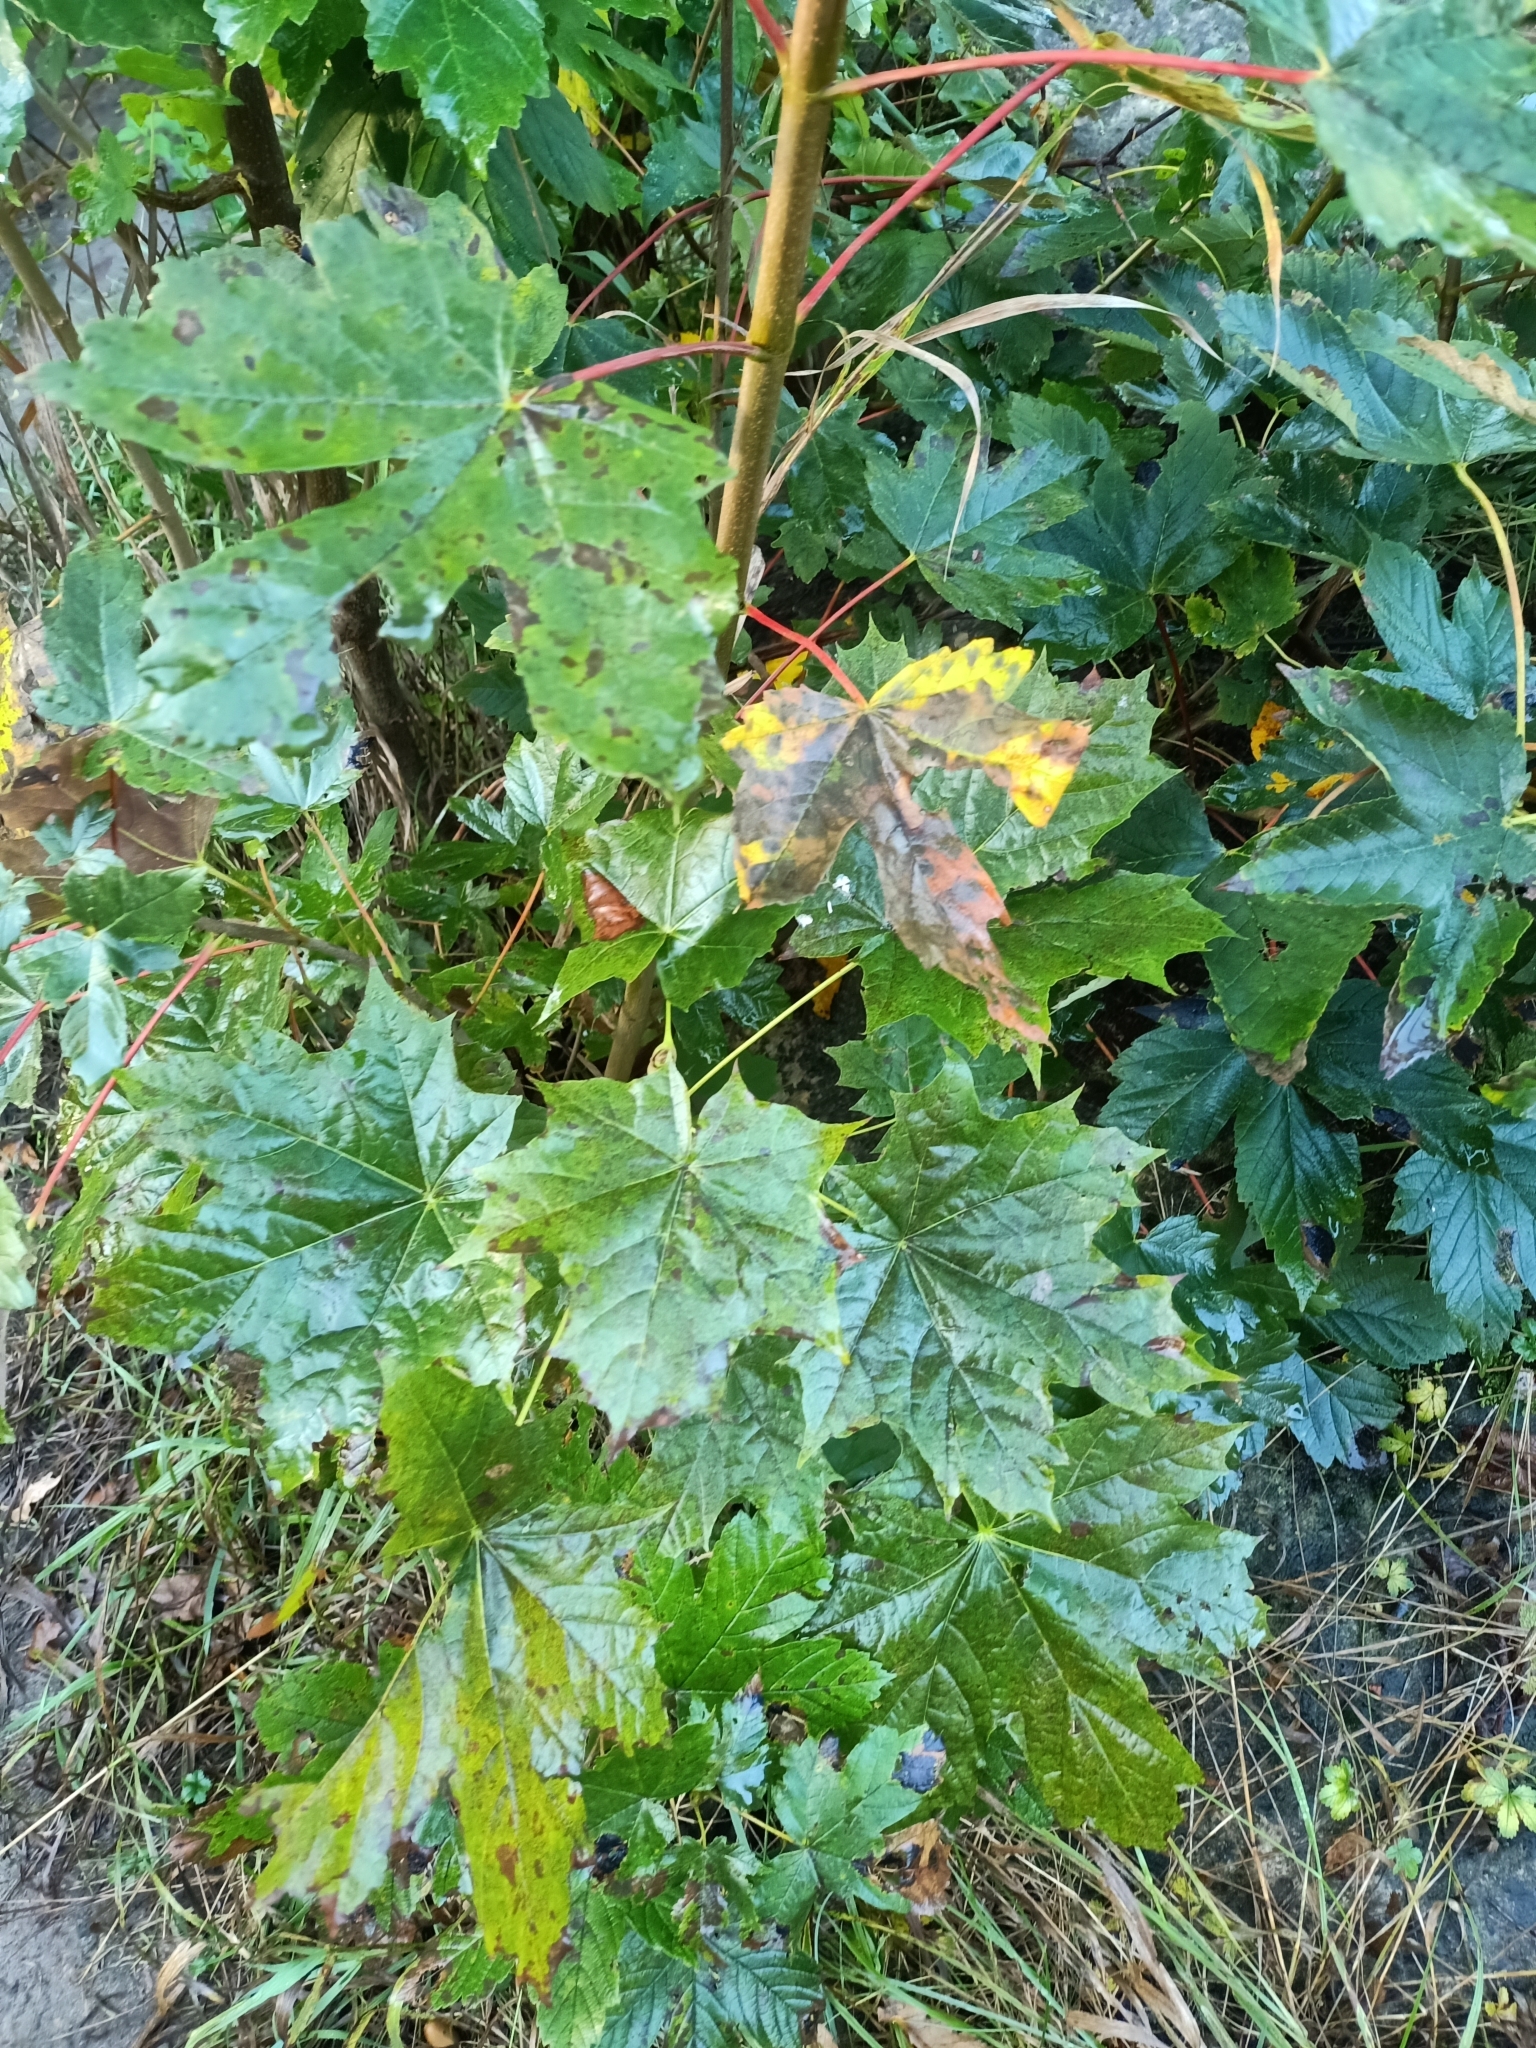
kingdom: Plantae
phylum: Tracheophyta
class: Magnoliopsida
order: Sapindales
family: Sapindaceae
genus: Acer
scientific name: Acer platanoides
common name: Norway maple
